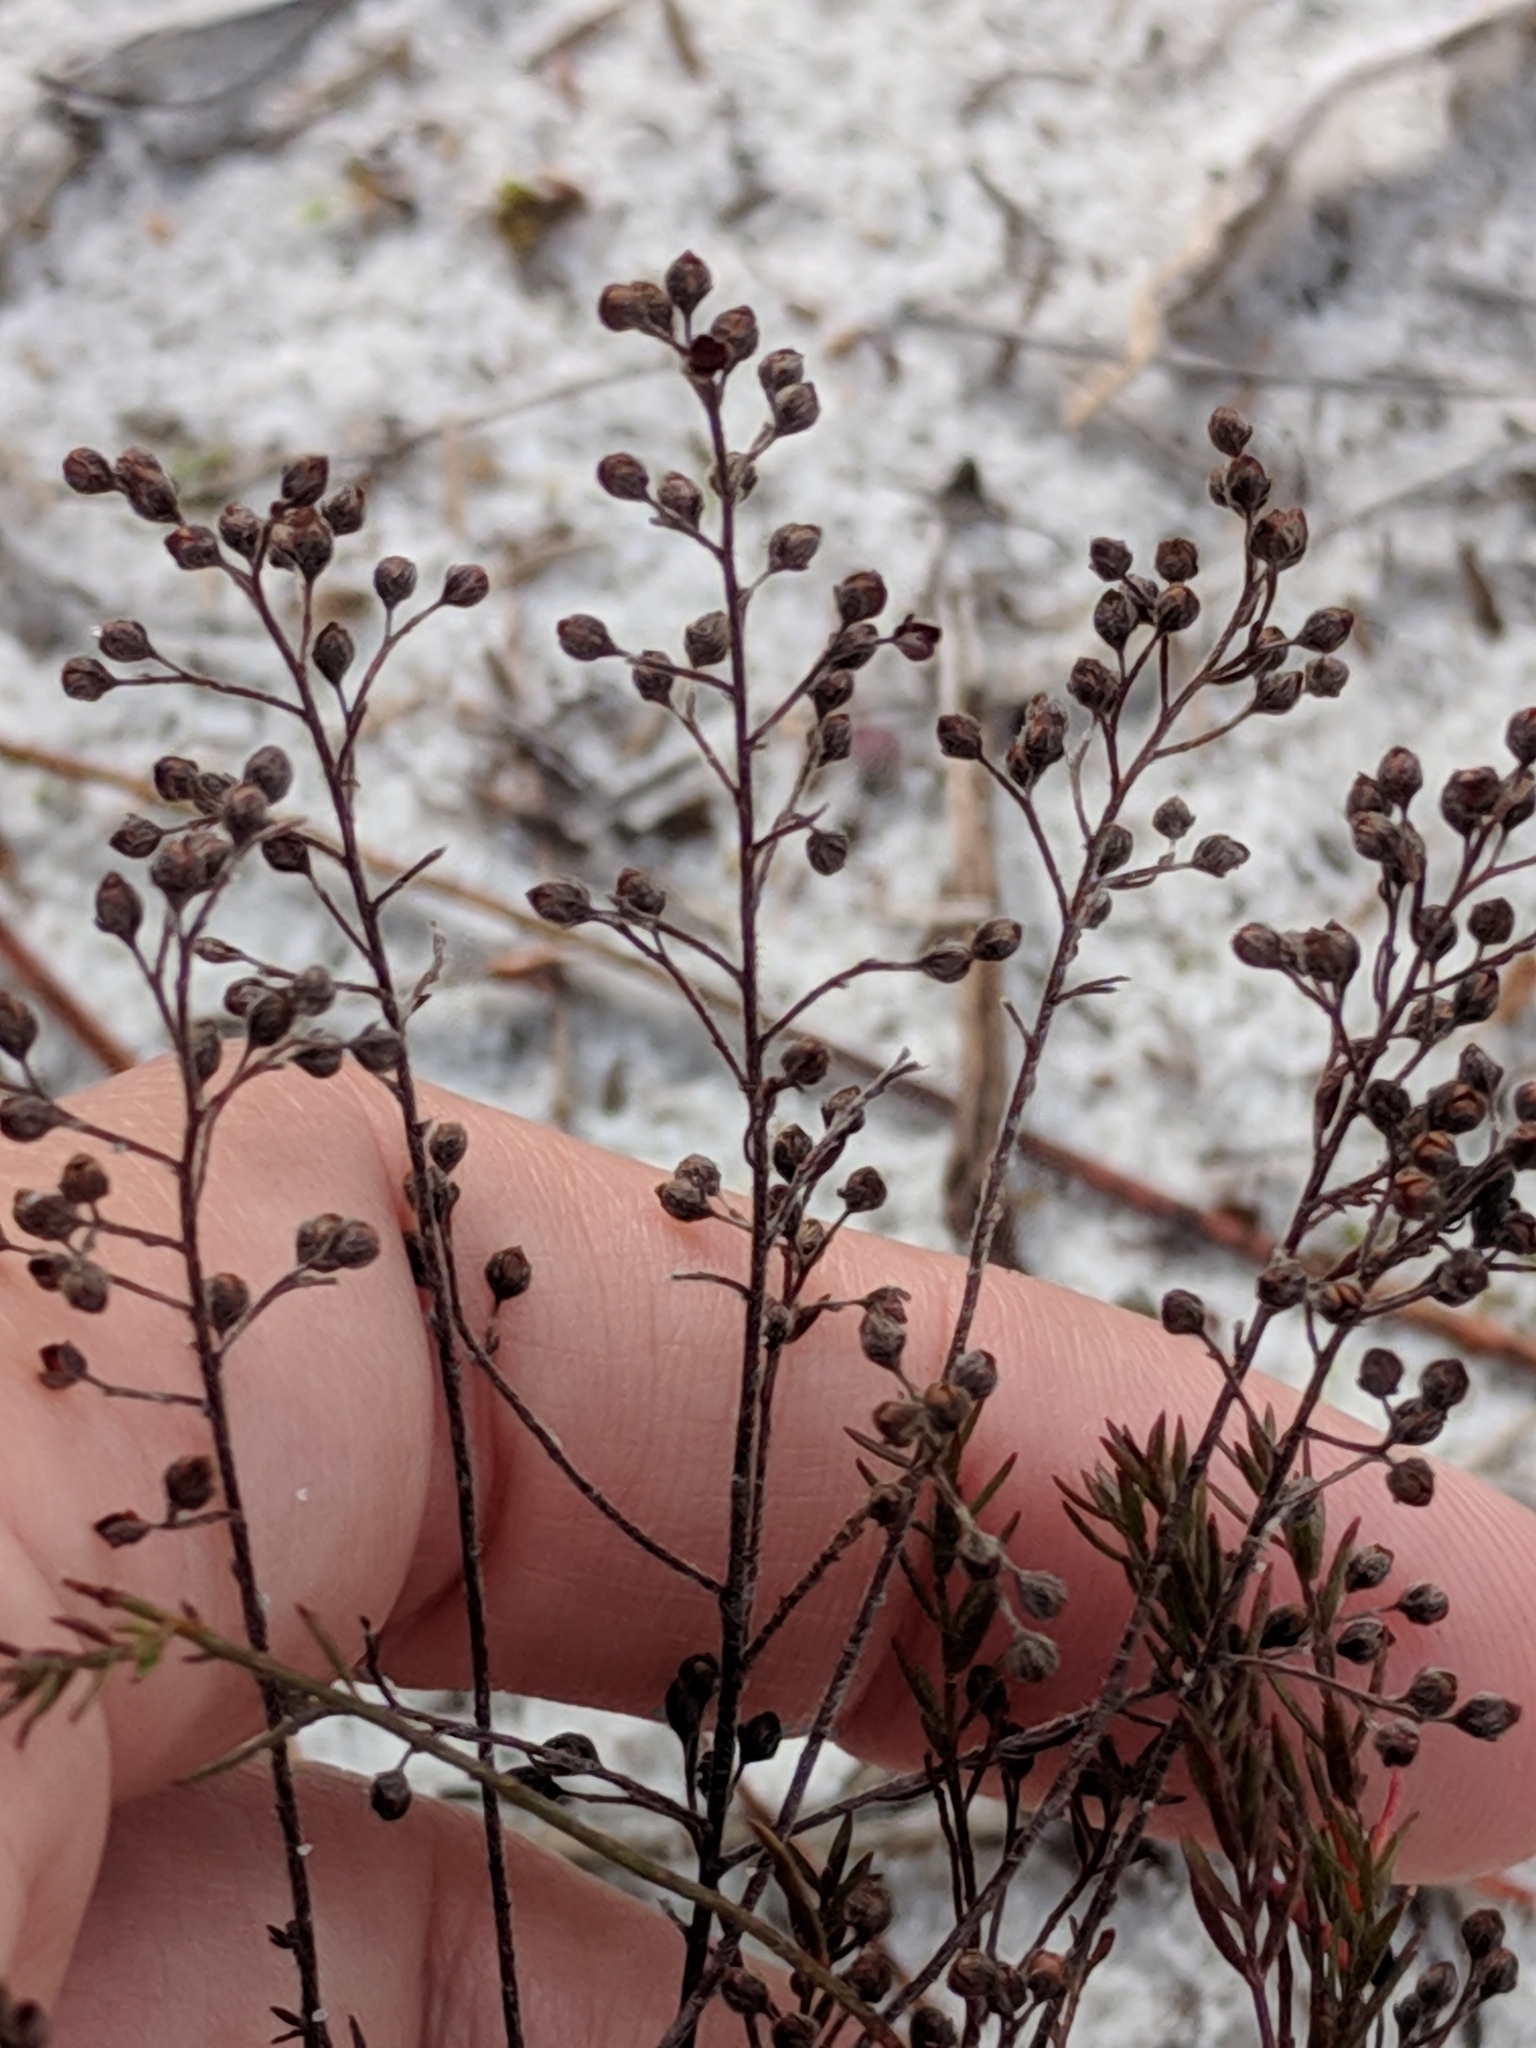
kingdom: Plantae
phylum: Tracheophyta
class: Magnoliopsida
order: Malvales
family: Cistaceae
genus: Lechea
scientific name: Lechea torreyi
